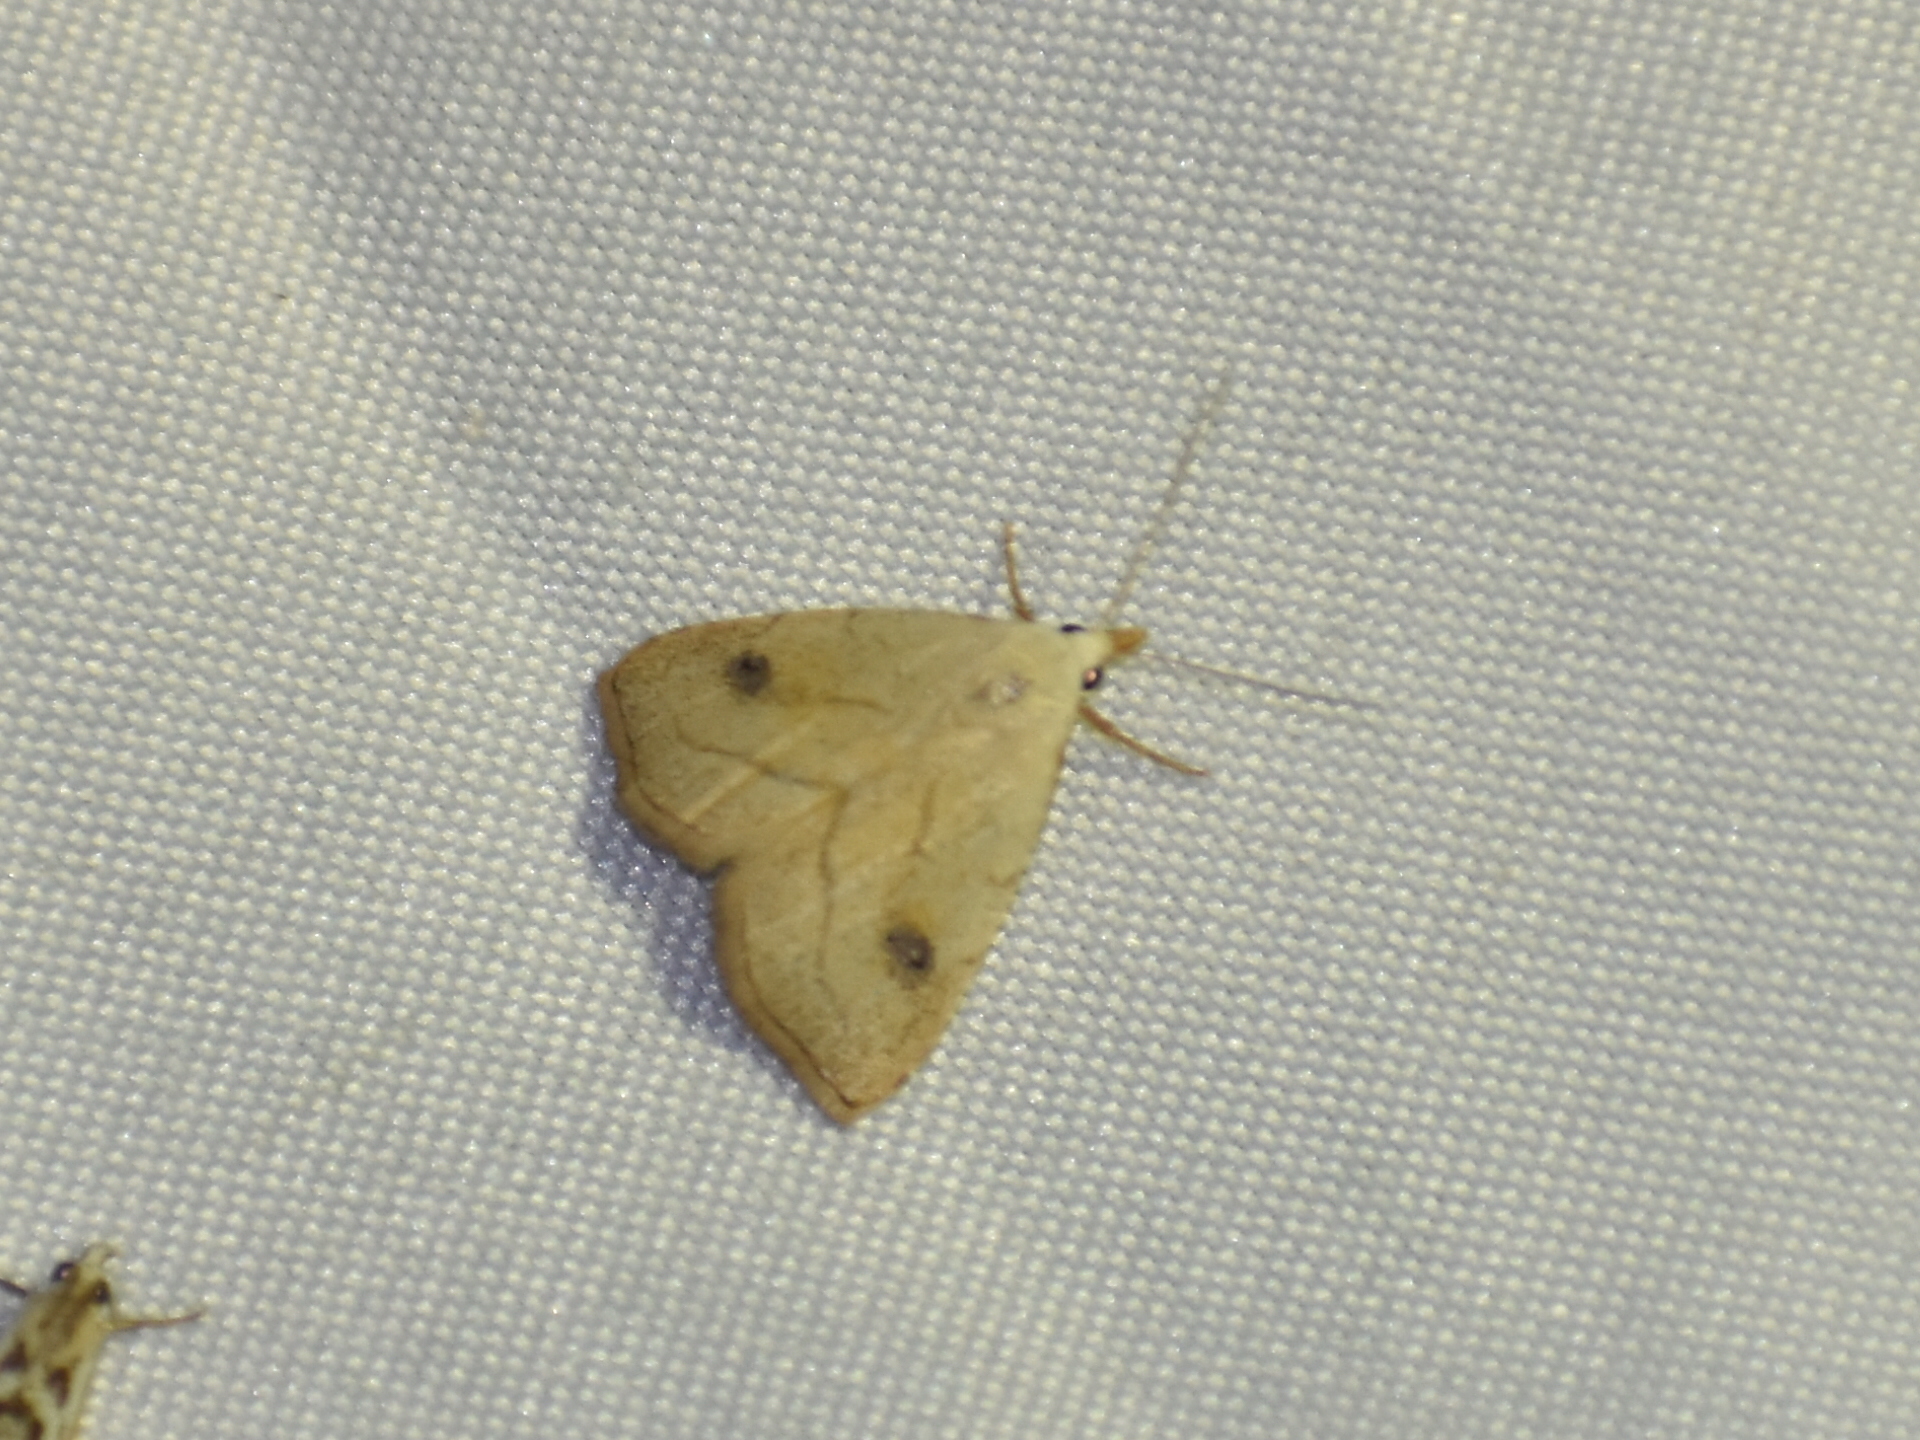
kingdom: Animalia
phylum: Arthropoda
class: Insecta
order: Lepidoptera
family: Erebidae
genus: Rivula
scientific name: Rivula propinqualis
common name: Spotted grass moth
